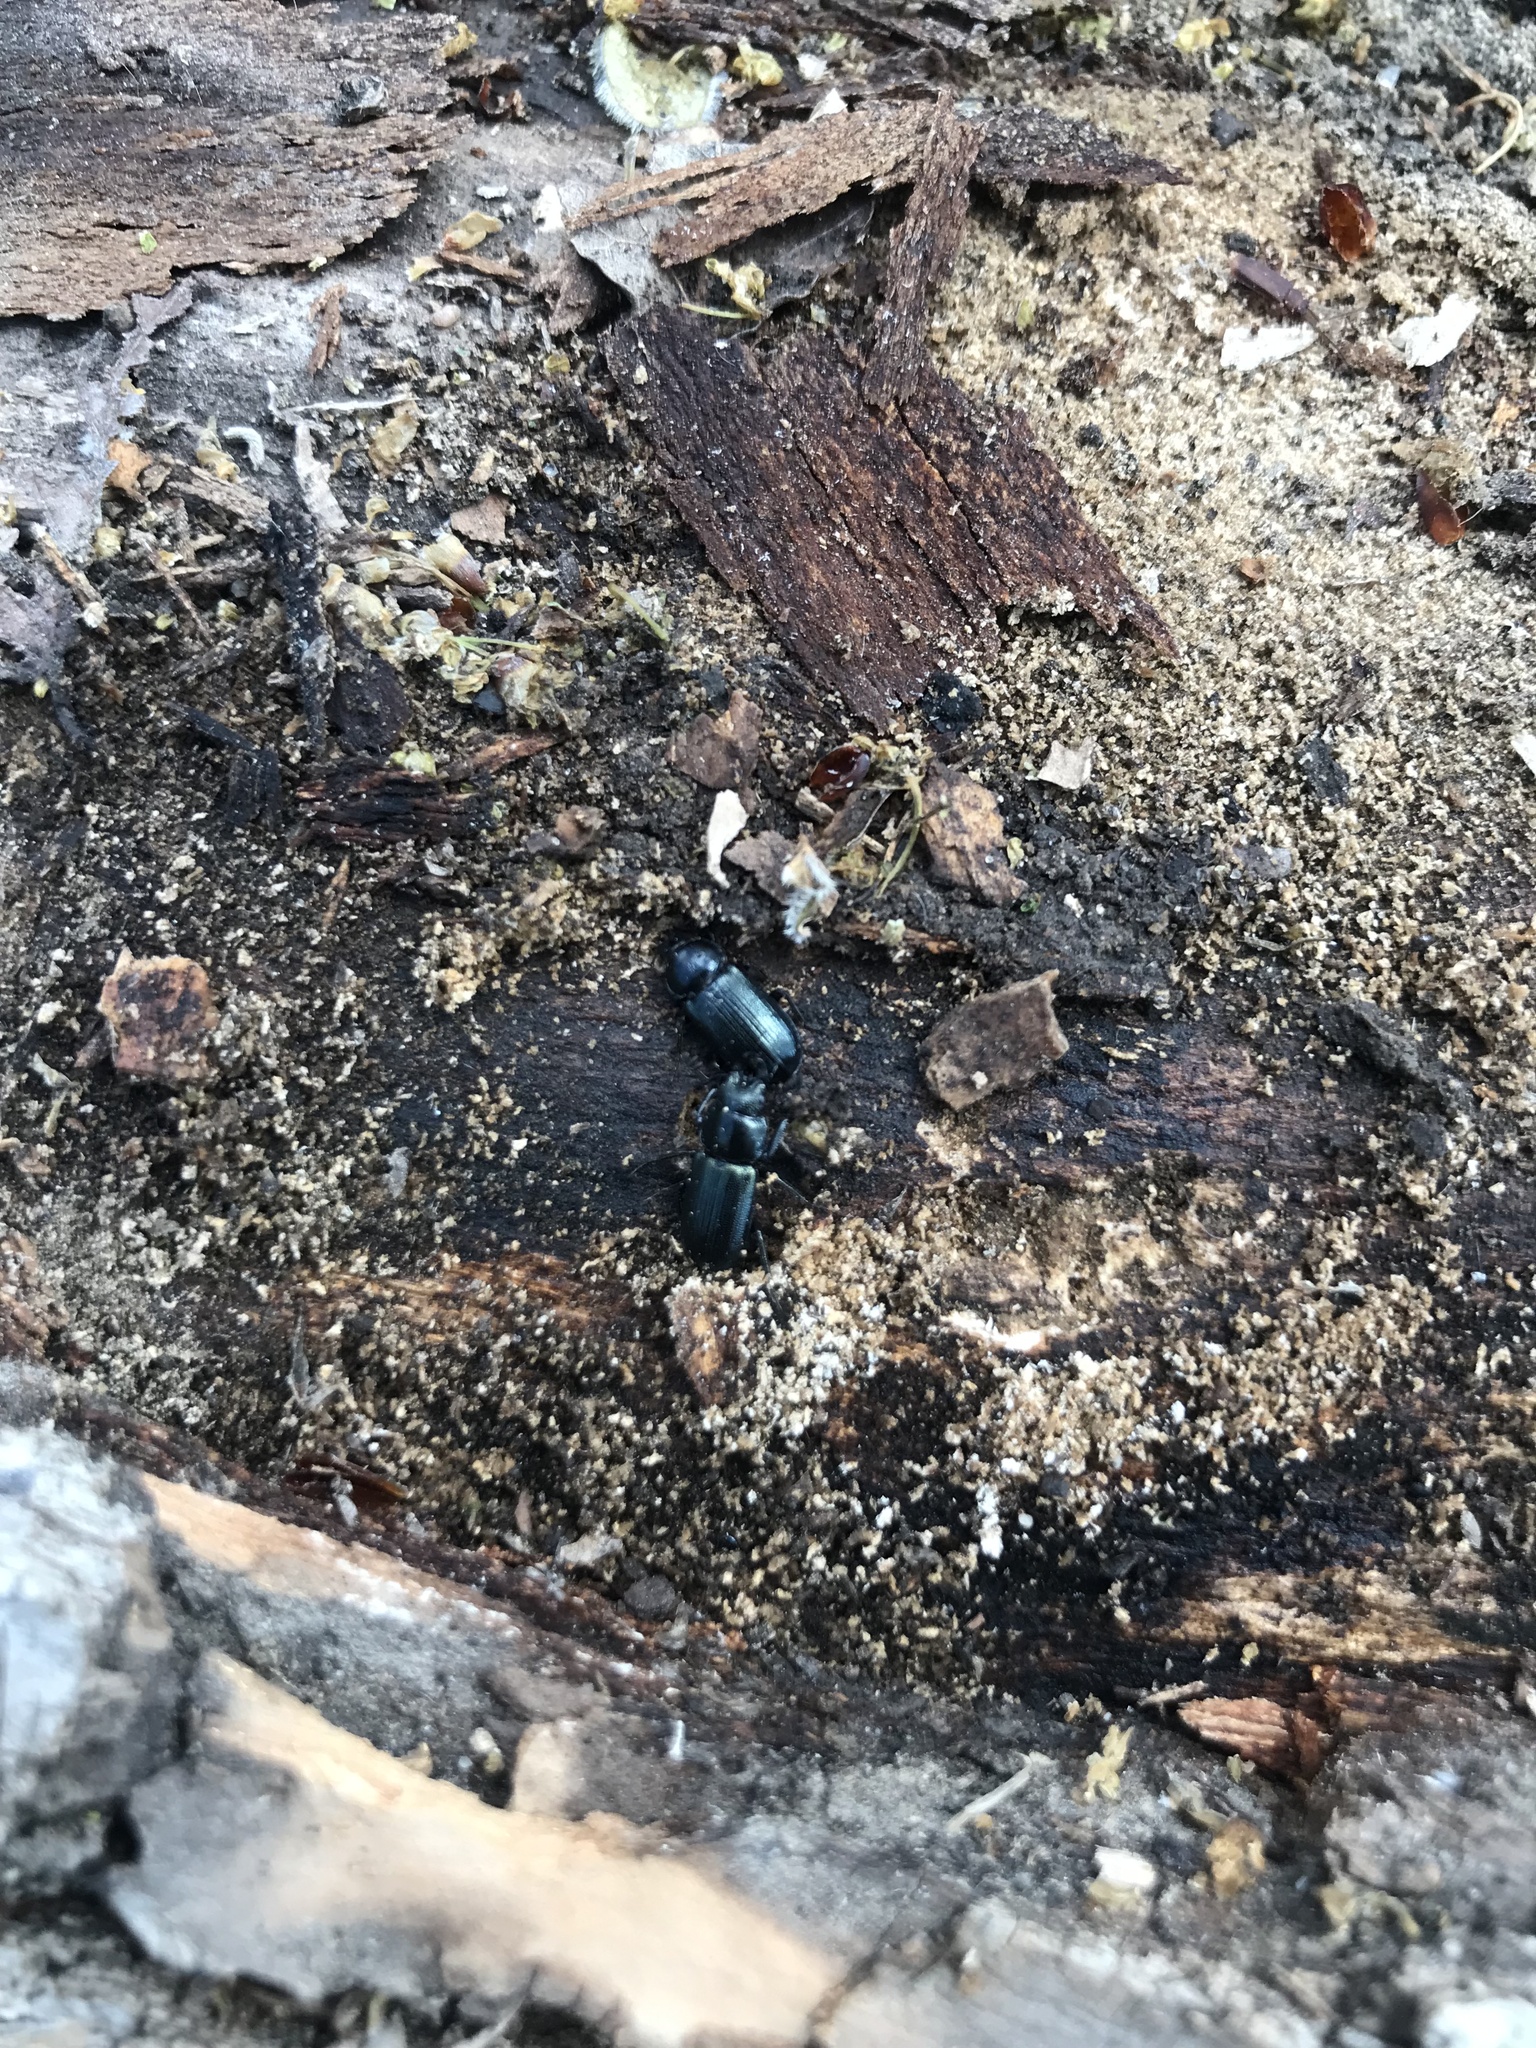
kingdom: Animalia
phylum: Arthropoda
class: Insecta
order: Coleoptera
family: Lucanidae
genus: Platycerus
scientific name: Platycerus quercus
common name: Oak stag beetle
